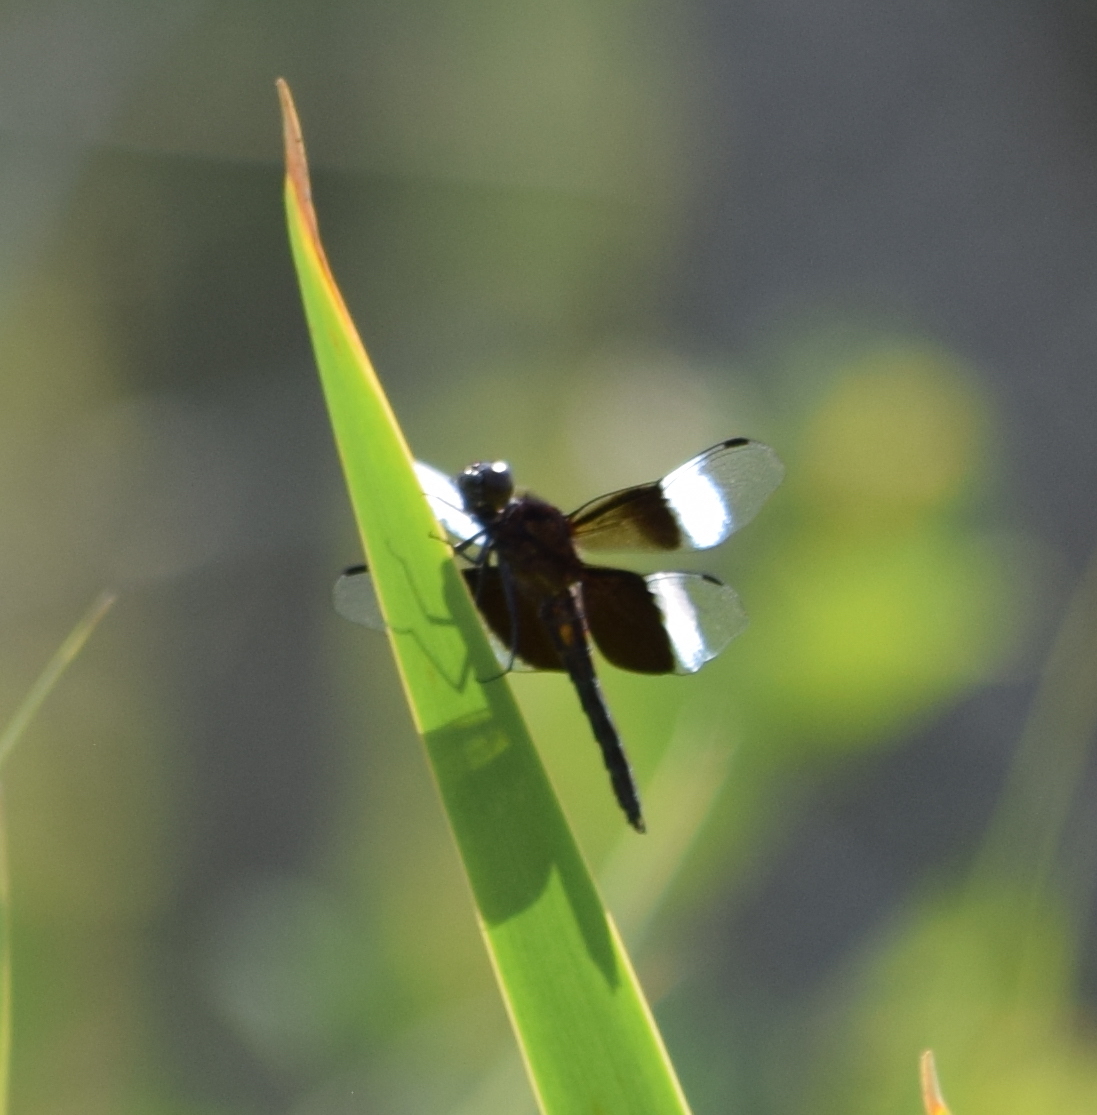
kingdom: Animalia
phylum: Arthropoda
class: Insecta
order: Odonata
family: Libellulidae
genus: Libellula
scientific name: Libellula luctuosa
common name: Widow skimmer
